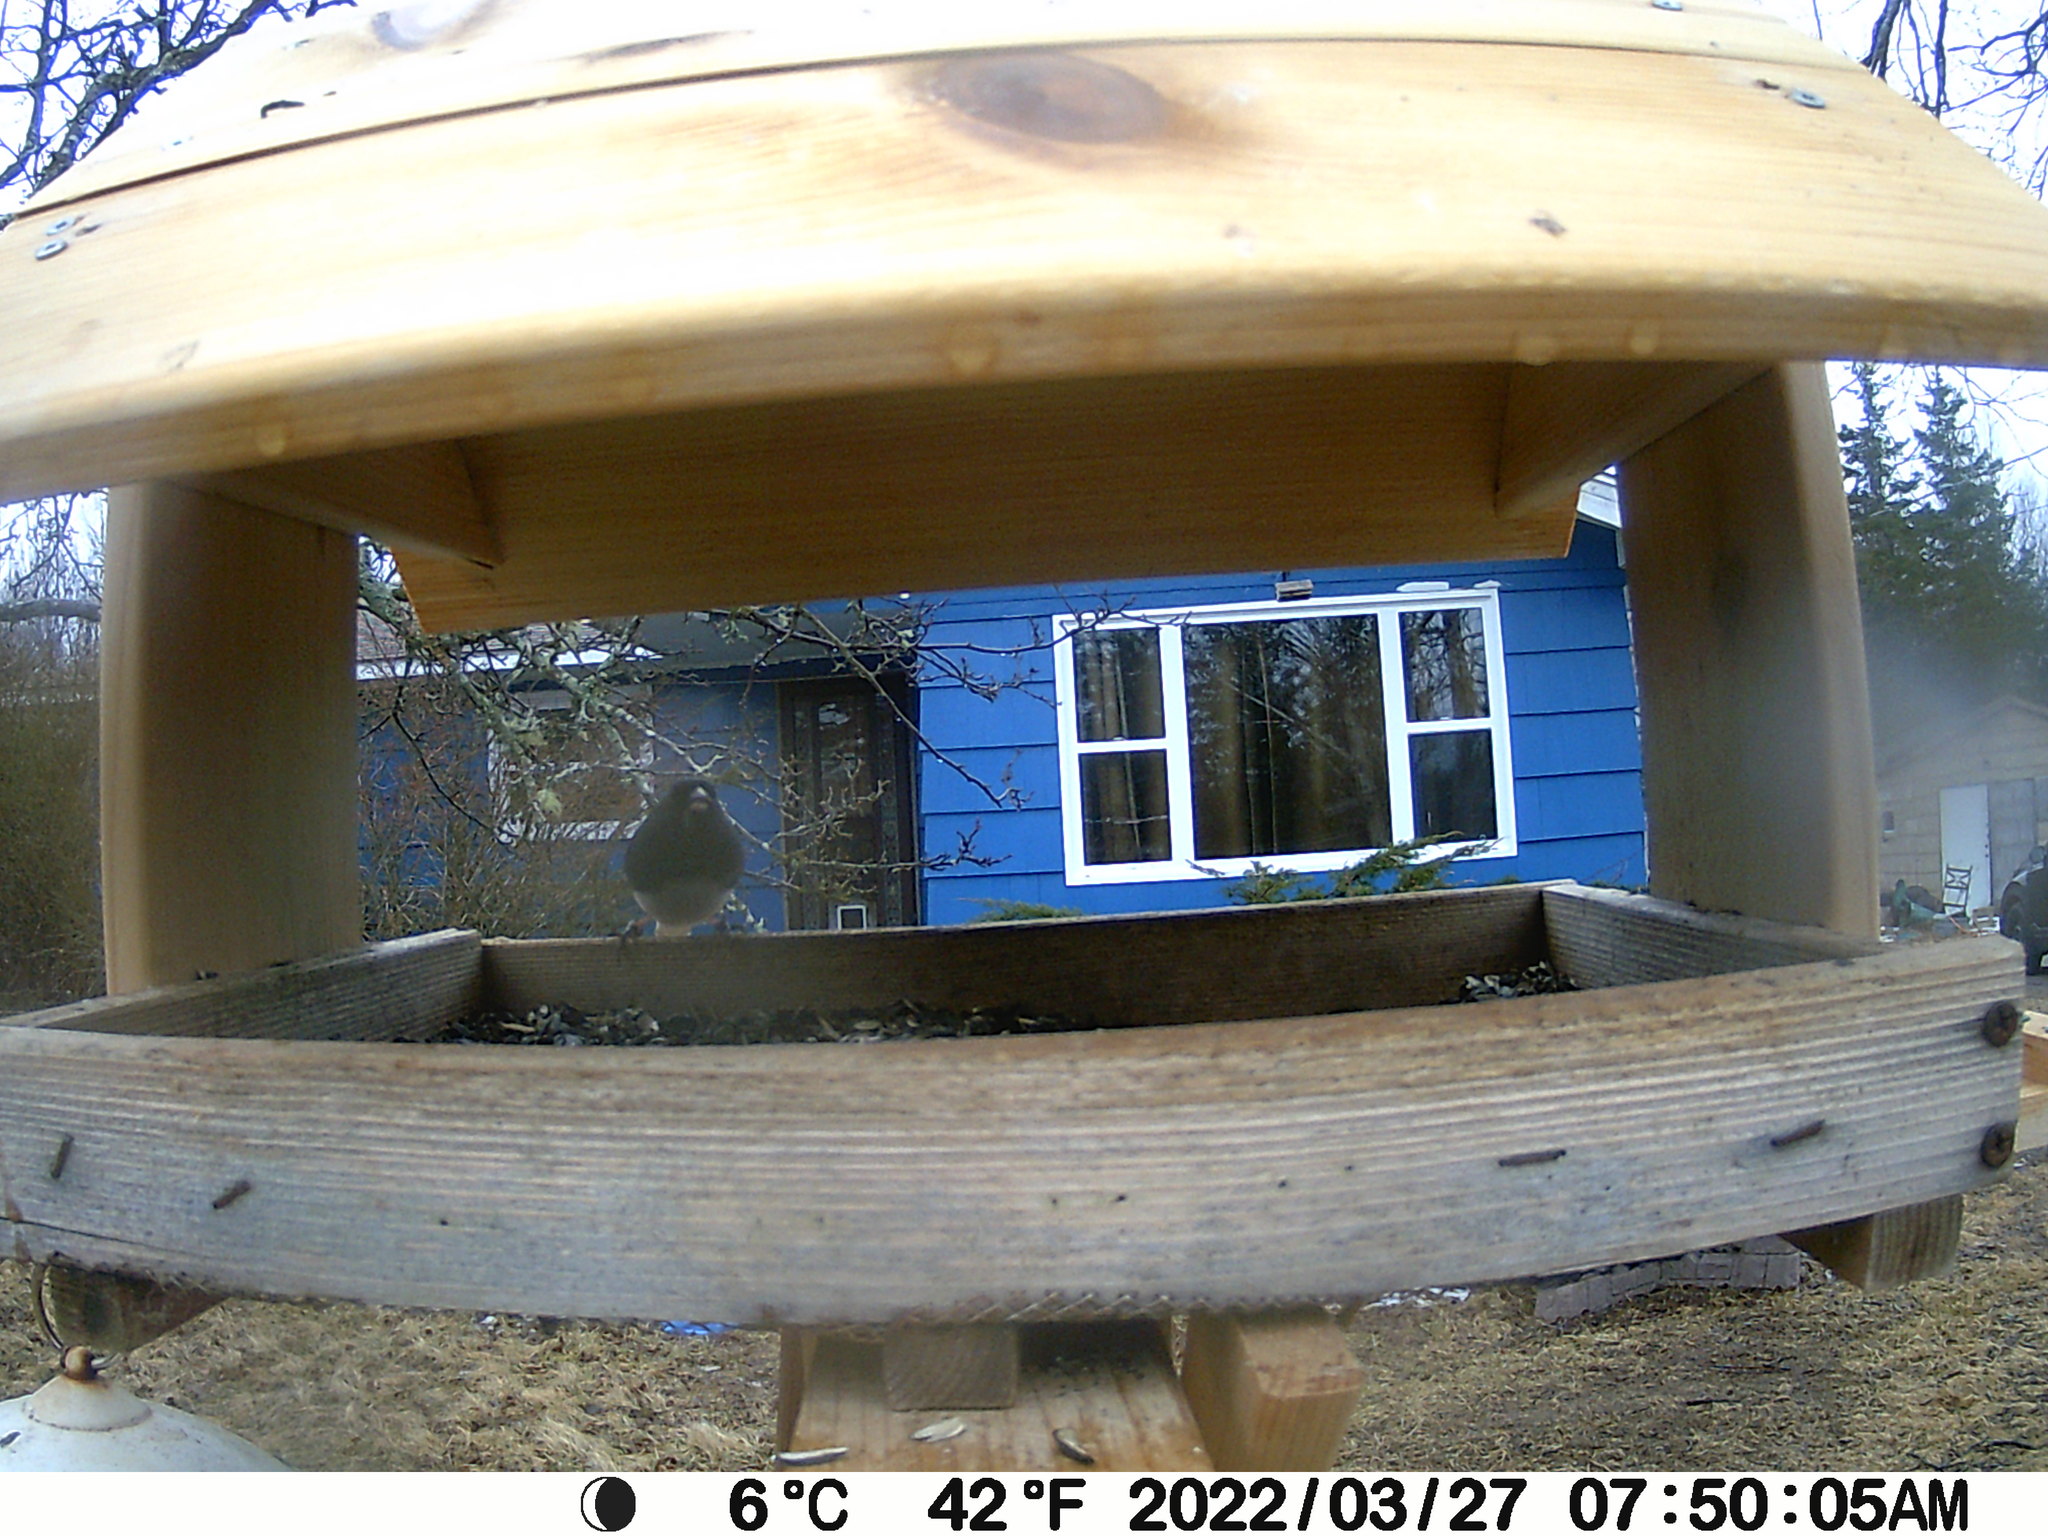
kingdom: Animalia
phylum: Chordata
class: Aves
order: Passeriformes
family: Passerellidae
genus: Junco
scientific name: Junco hyemalis
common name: Dark-eyed junco
